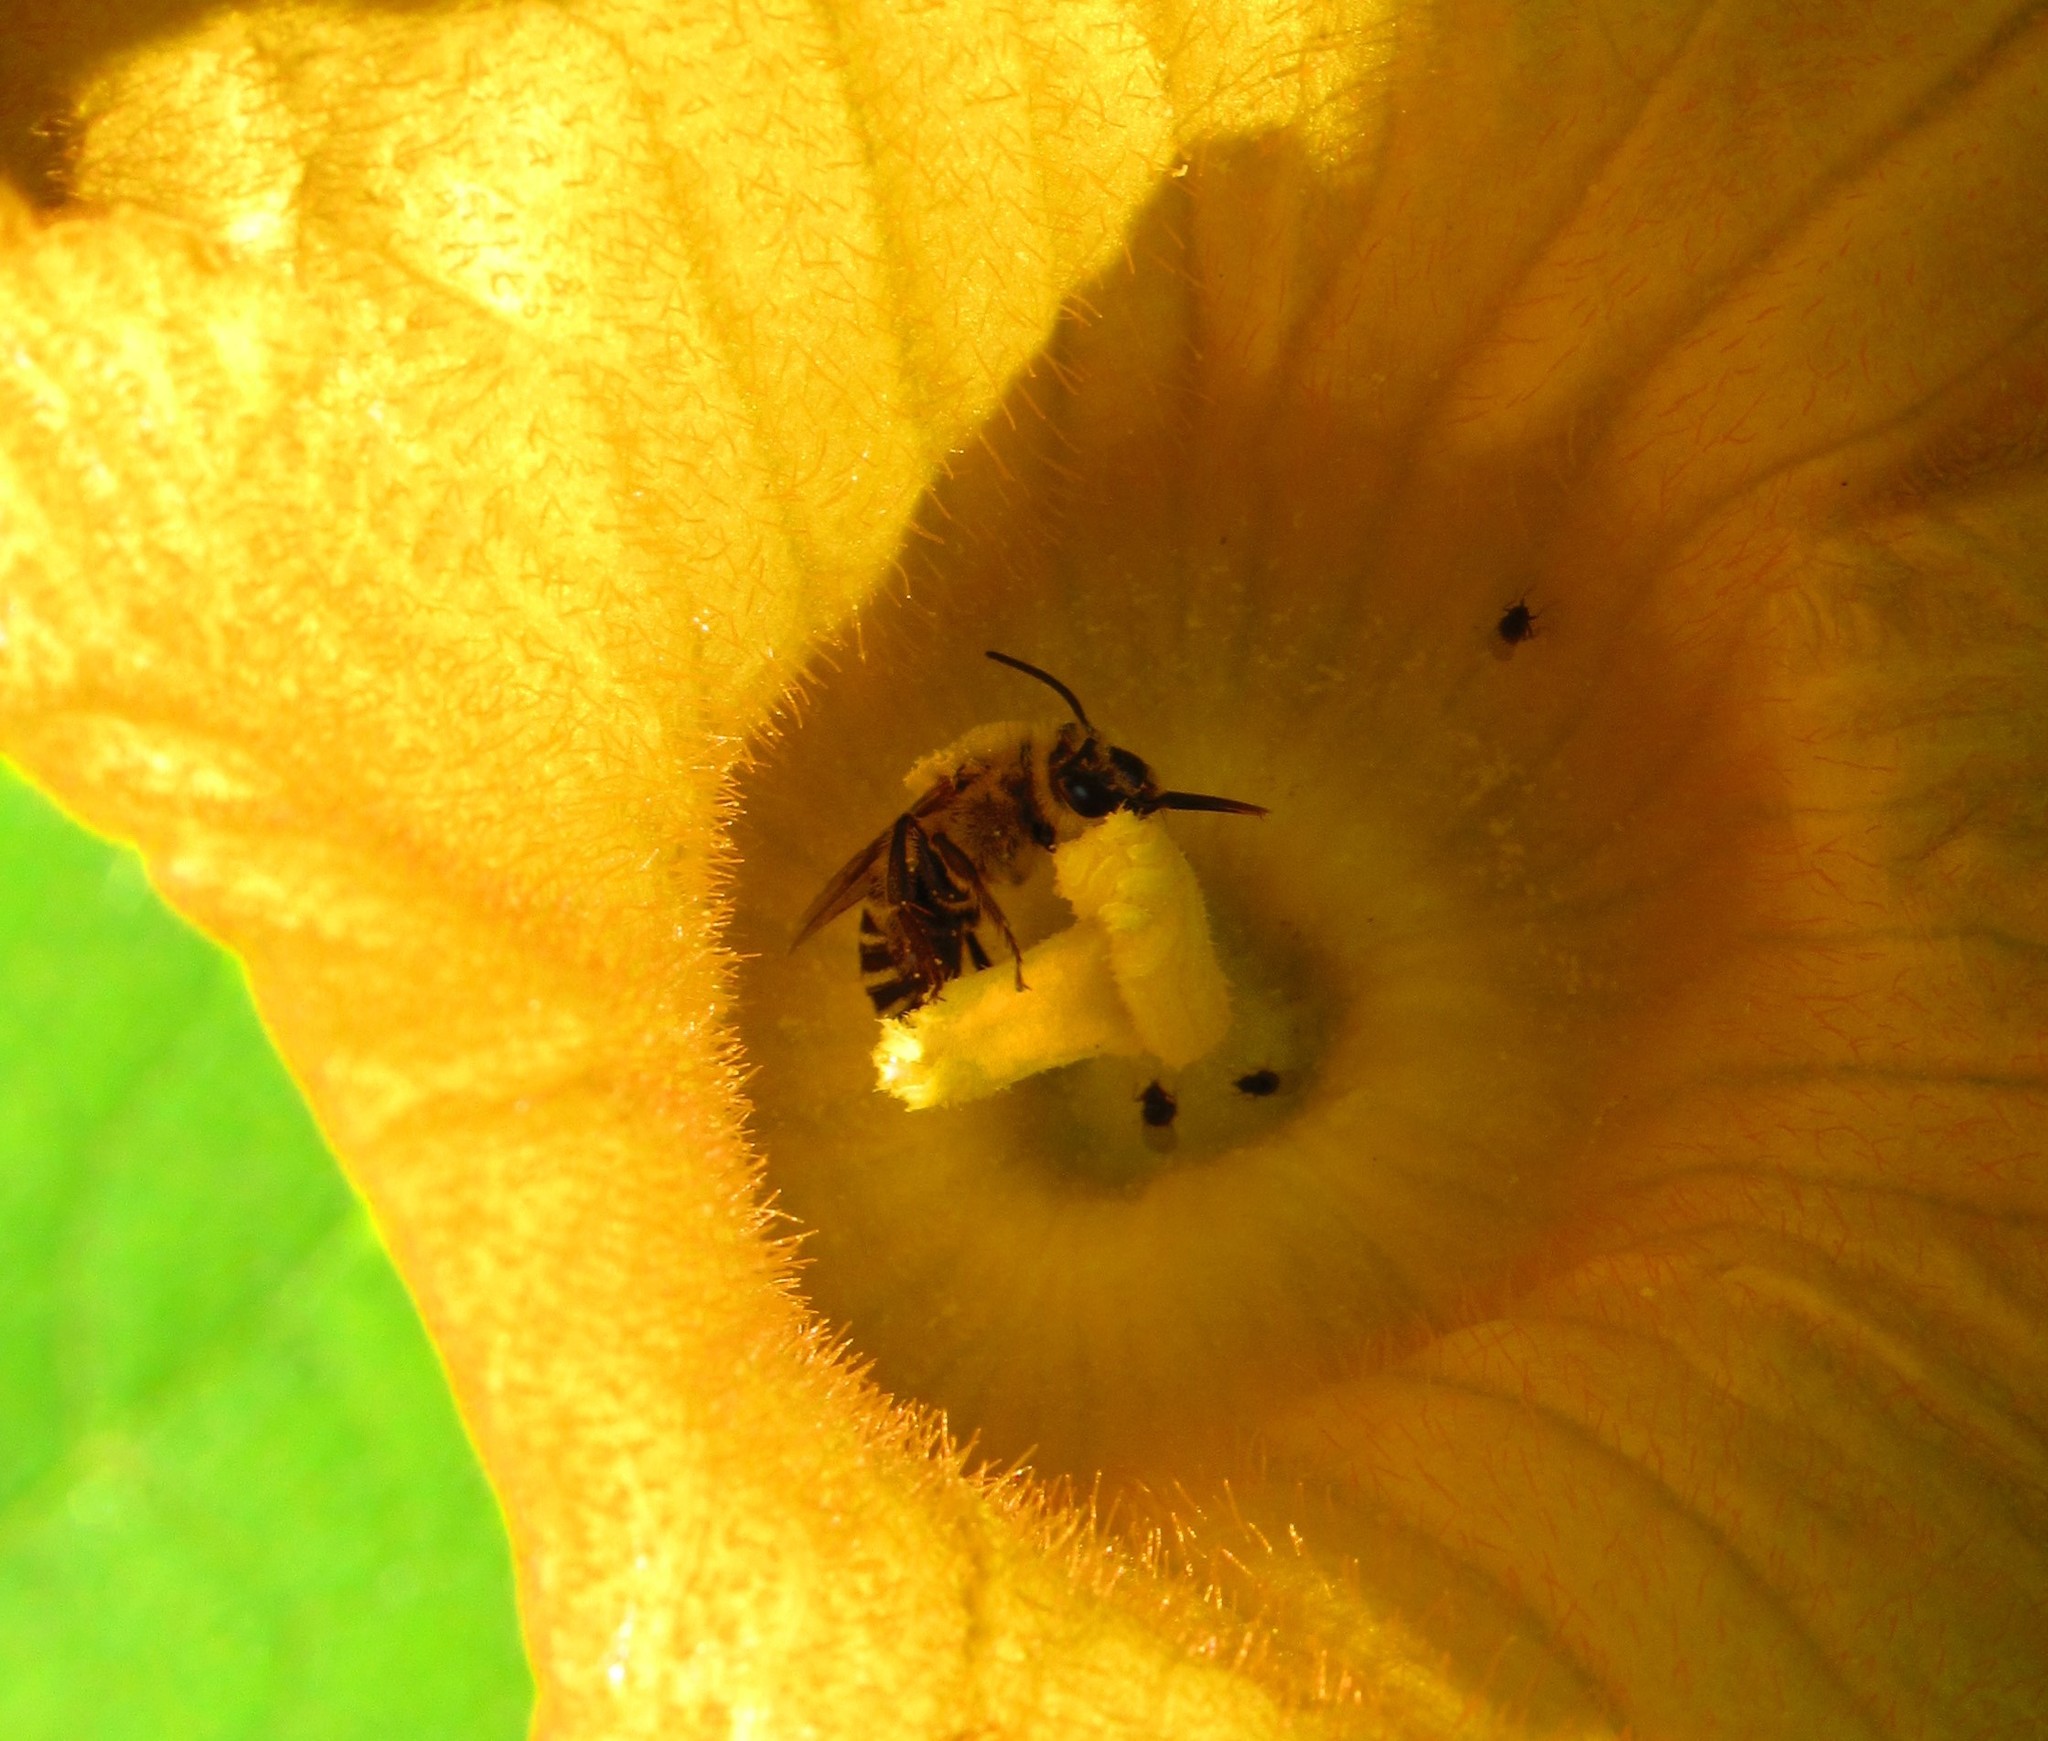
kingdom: Animalia
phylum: Arthropoda
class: Insecta
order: Hymenoptera
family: Apidae
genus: Peponapis
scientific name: Peponapis pruinosa
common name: Pruinose squash bee
